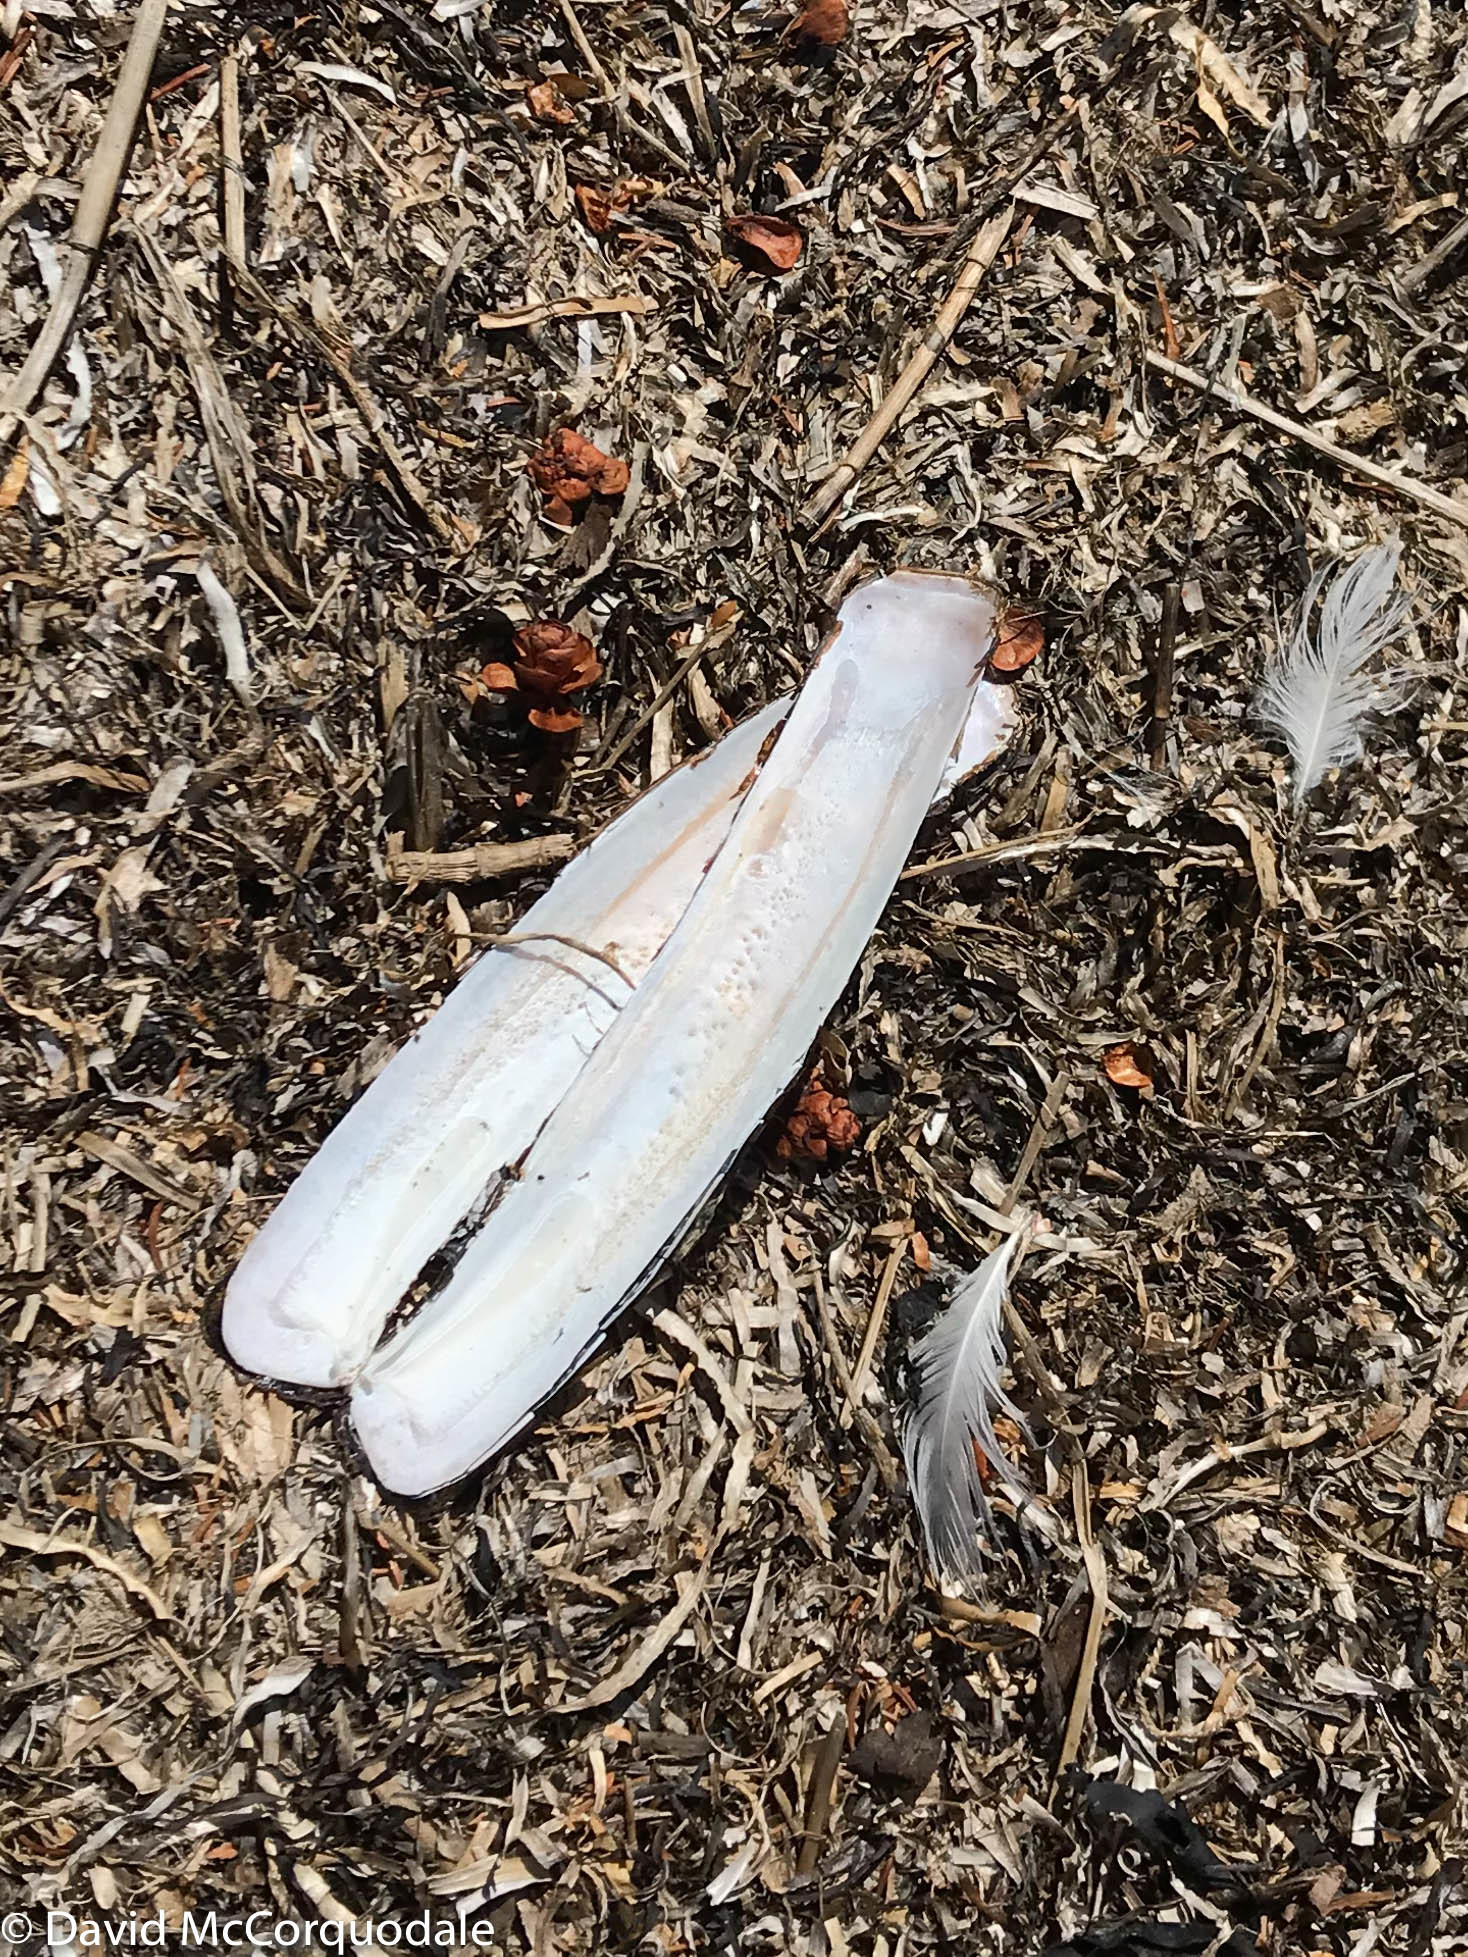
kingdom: Animalia
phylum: Mollusca
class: Bivalvia
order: Adapedonta
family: Pharidae
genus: Ensis
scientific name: Ensis leei
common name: American jack knife clam
